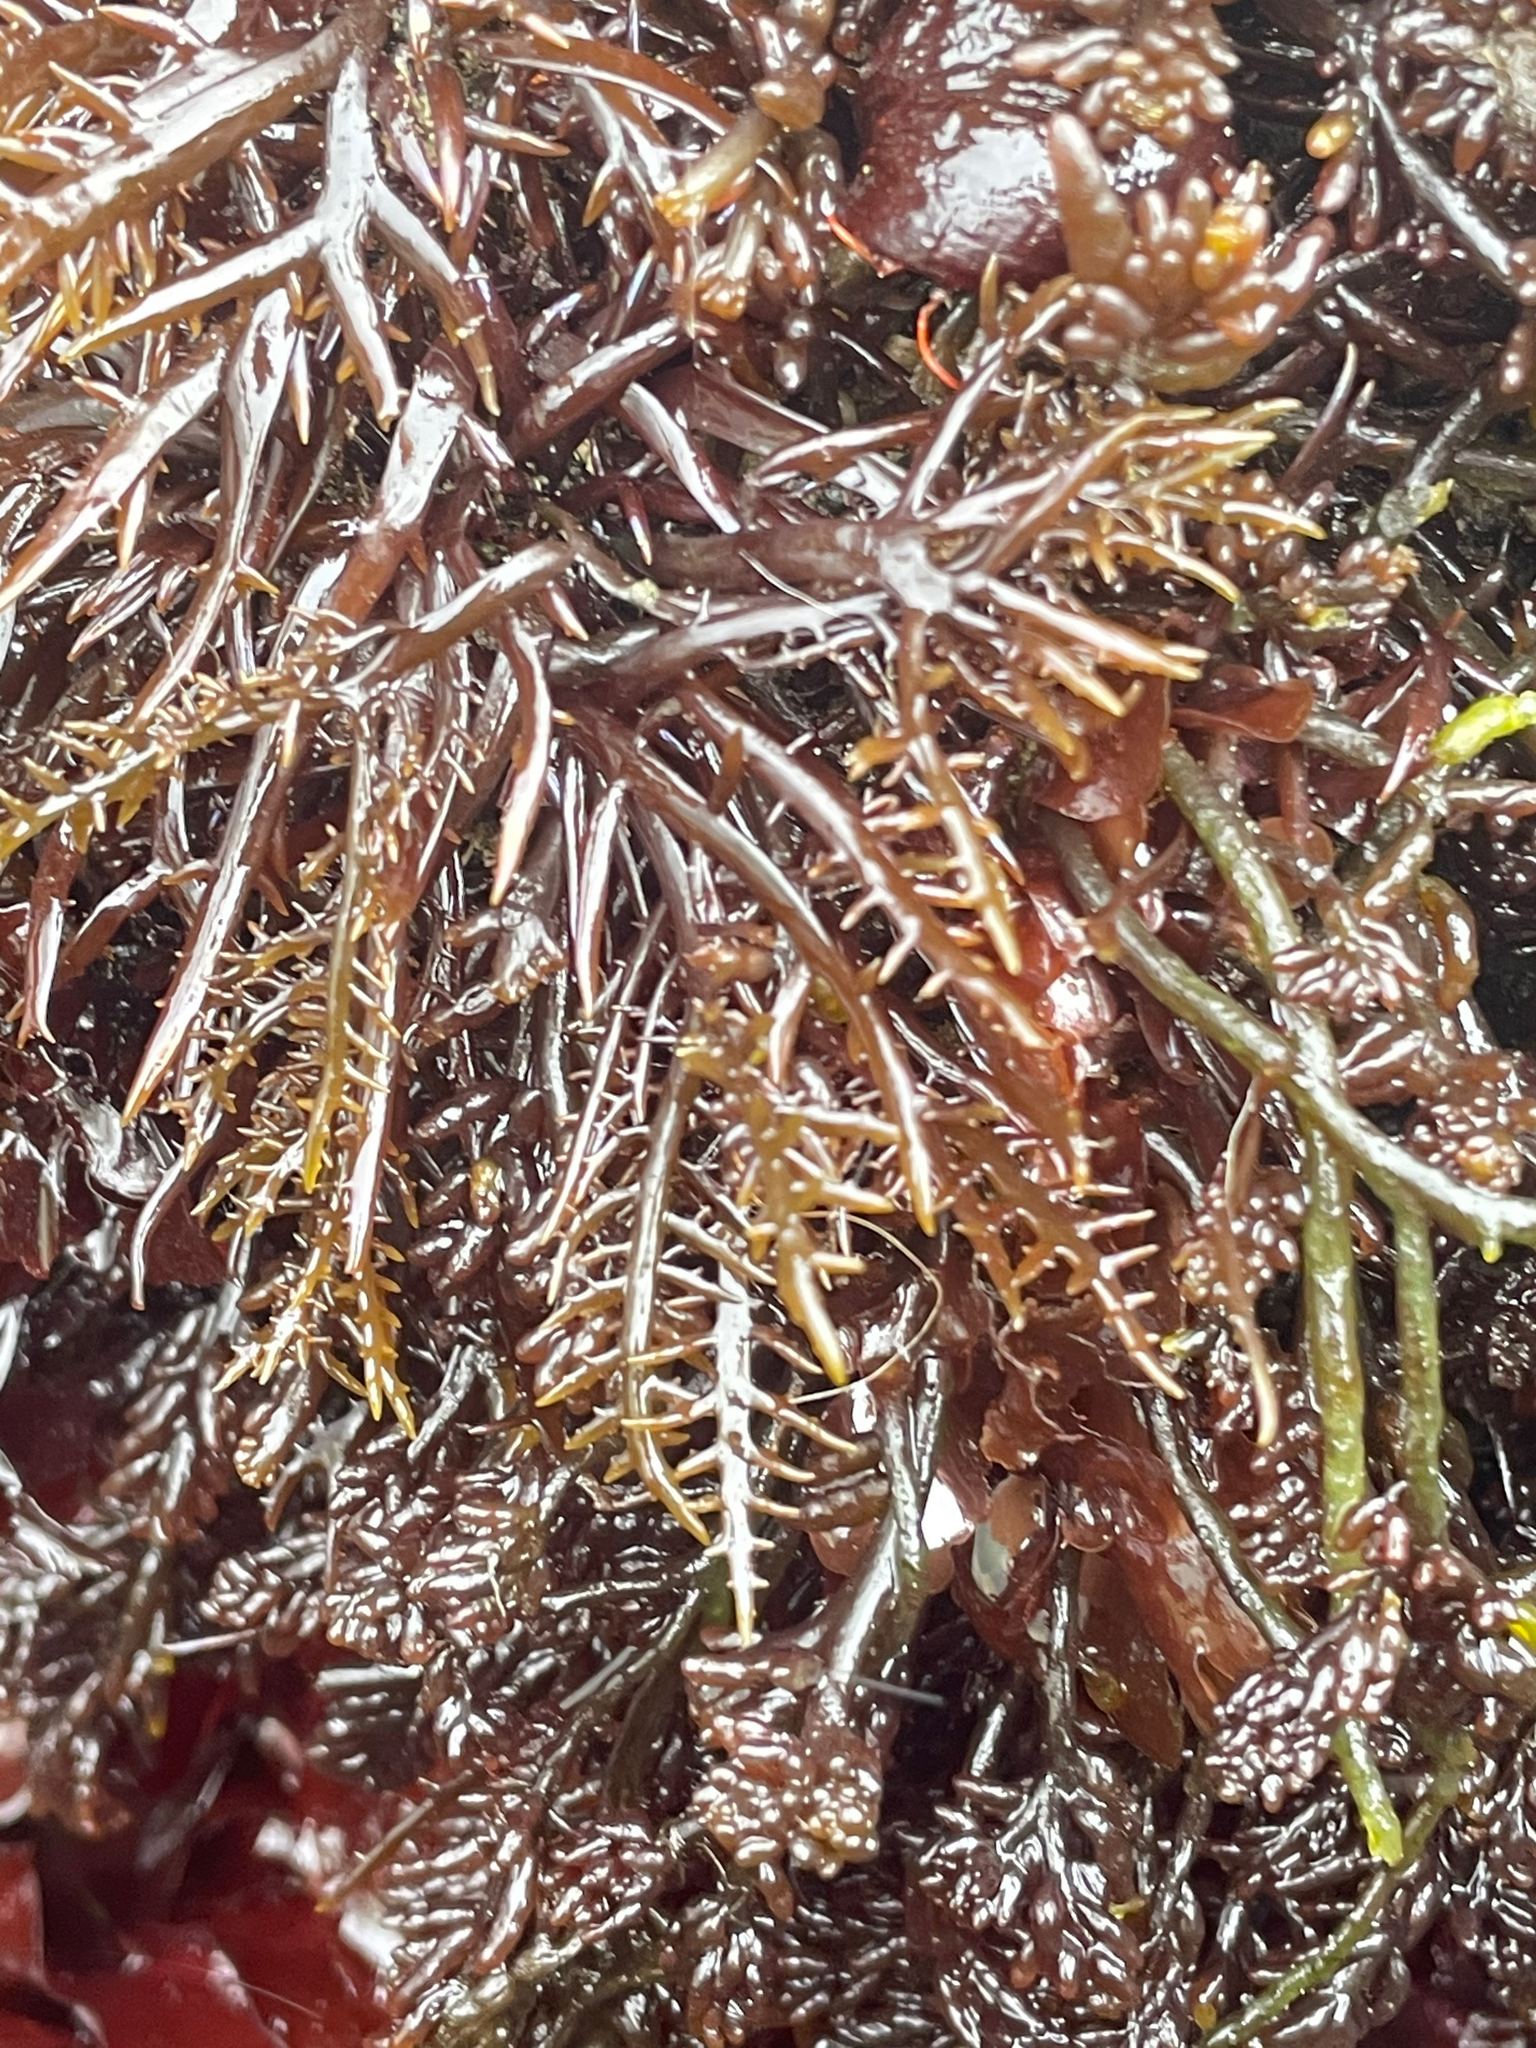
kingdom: Plantae
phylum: Rhodophyta
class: Florideophyceae
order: Gigartinales
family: Gigartinaceae
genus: Chondracanthus
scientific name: Chondracanthus canaliculatus
